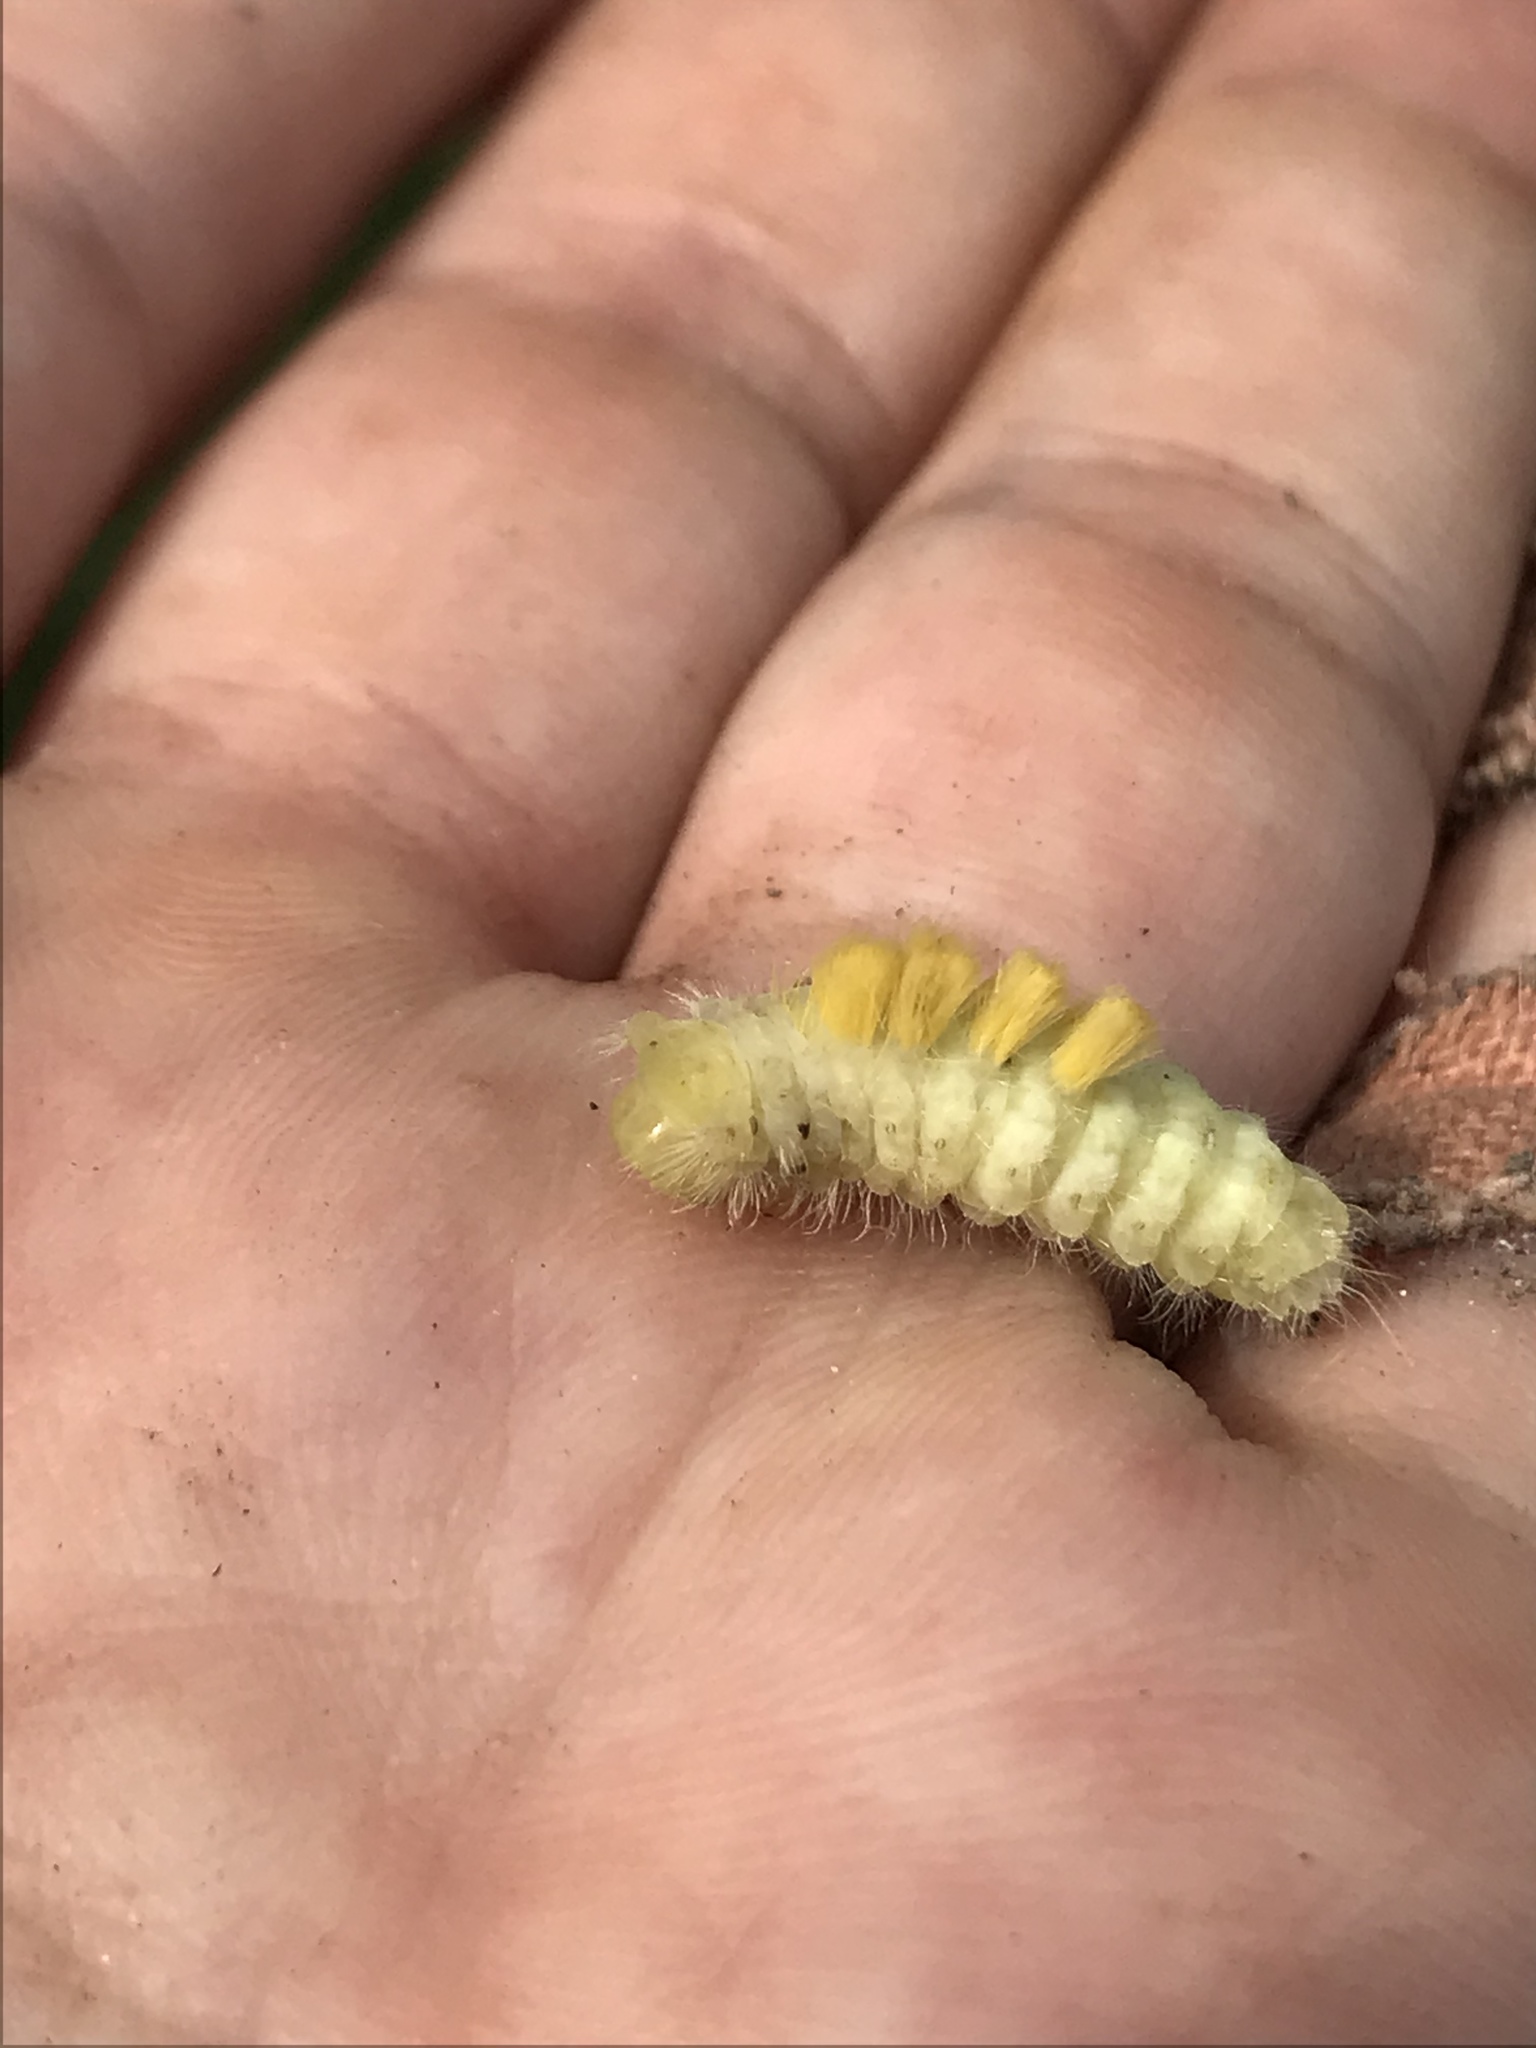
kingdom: Animalia
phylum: Arthropoda
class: Insecta
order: Lepidoptera
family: Erebidae
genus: Orgyia
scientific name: Orgyia definita
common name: Definite tussock moth
